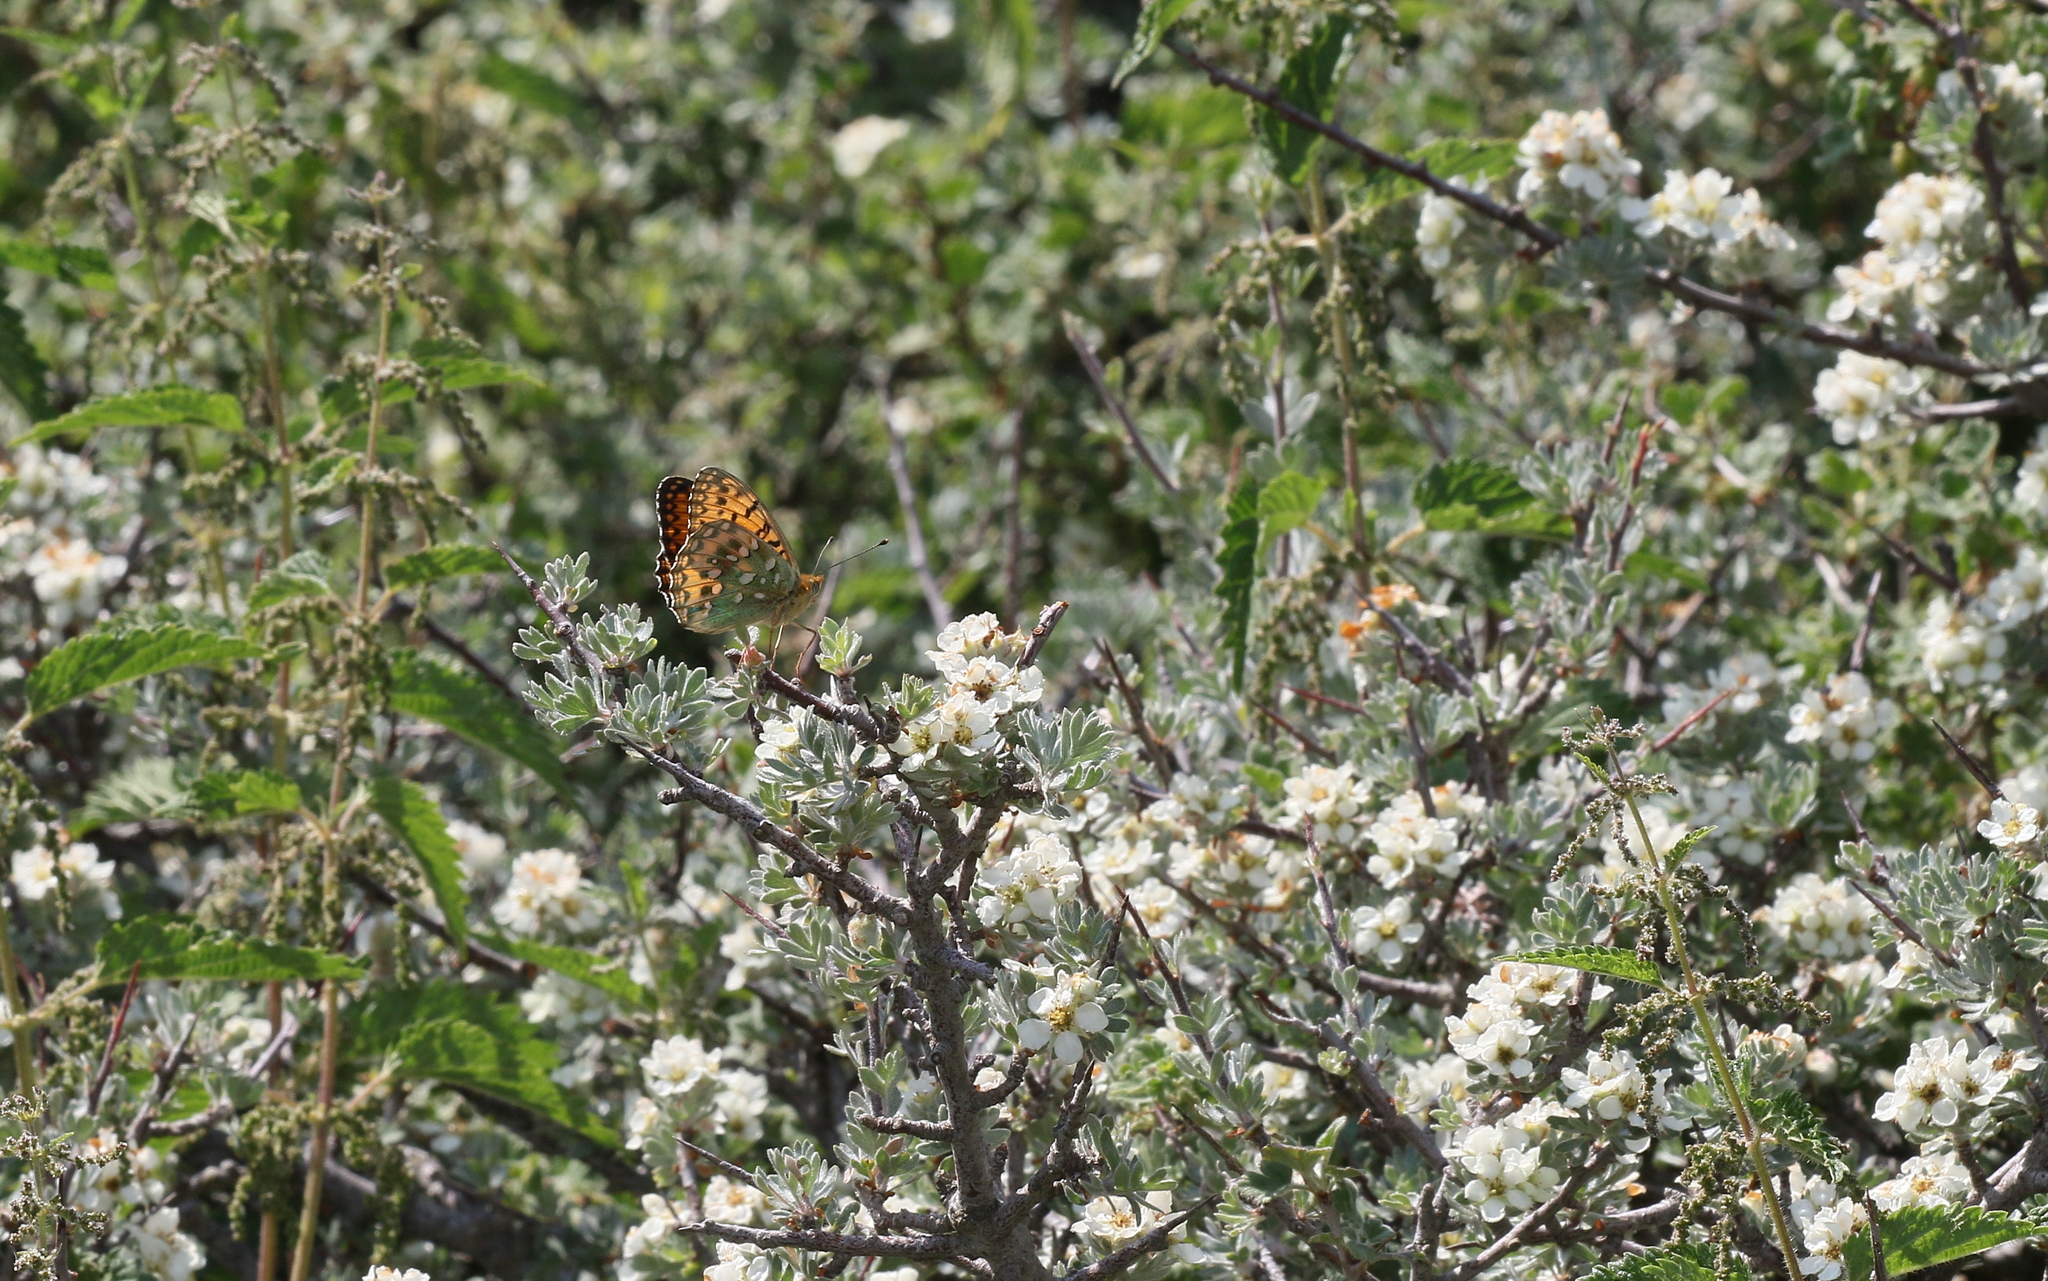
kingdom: Animalia
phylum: Arthropoda
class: Insecta
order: Lepidoptera
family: Nymphalidae
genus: Speyeria
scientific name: Speyeria aglaja
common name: Dark green fritillary
